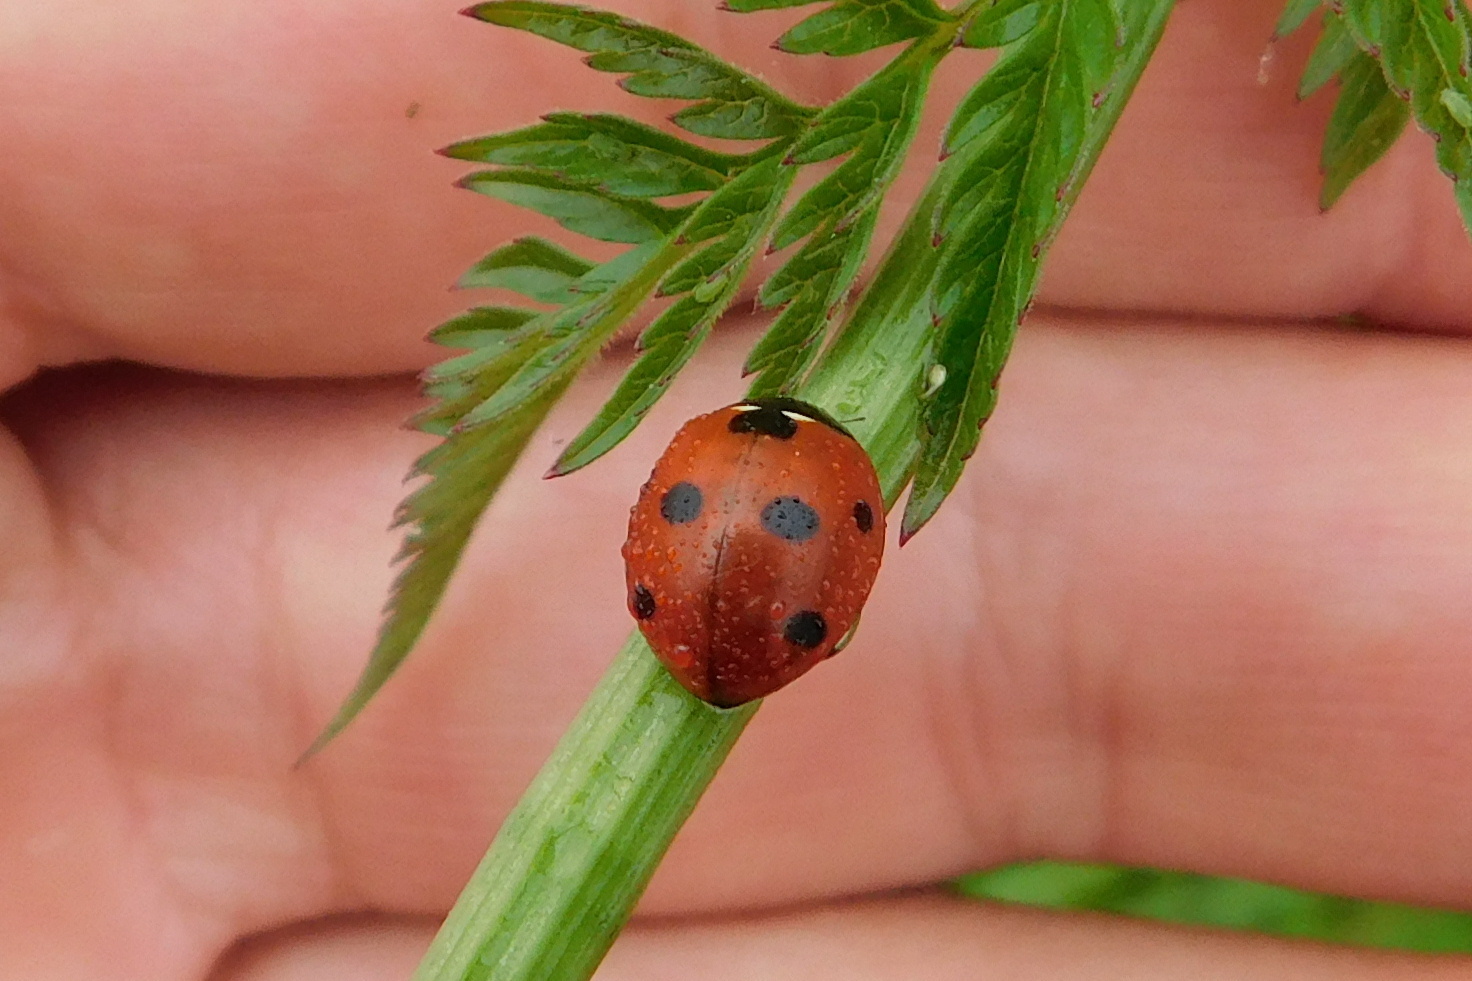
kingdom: Animalia
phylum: Arthropoda
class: Insecta
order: Coleoptera
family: Coccinellidae
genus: Coccinella
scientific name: Coccinella septempunctata
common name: Sevenspotted lady beetle
